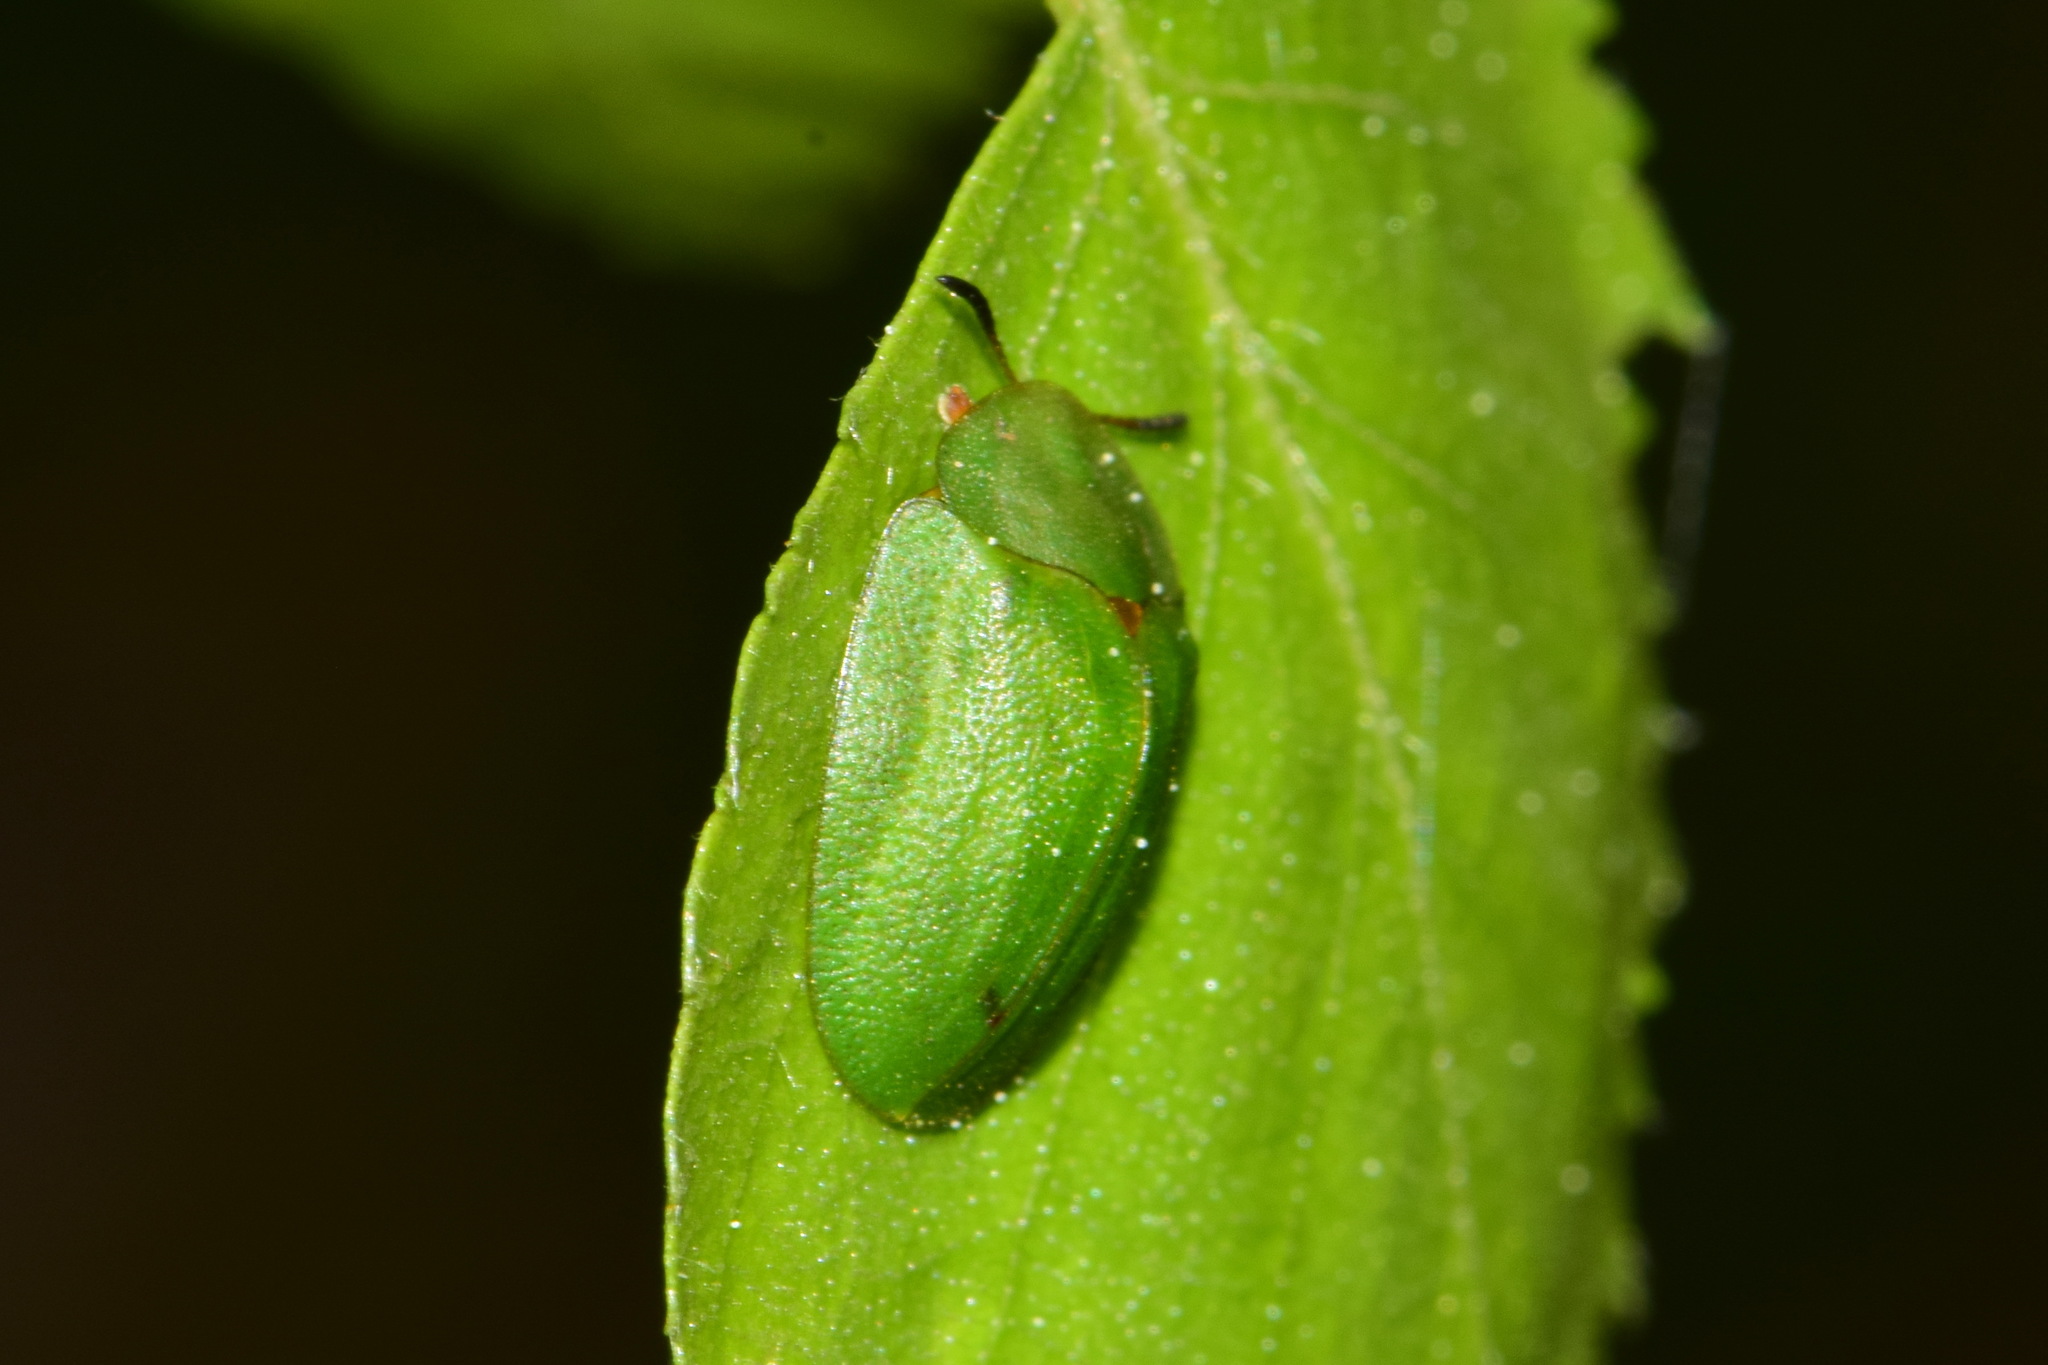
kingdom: Animalia
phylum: Arthropoda
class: Insecta
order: Coleoptera
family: Chrysomelidae
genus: Cassida
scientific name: Cassida viridis
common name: Green tortoise beetle
